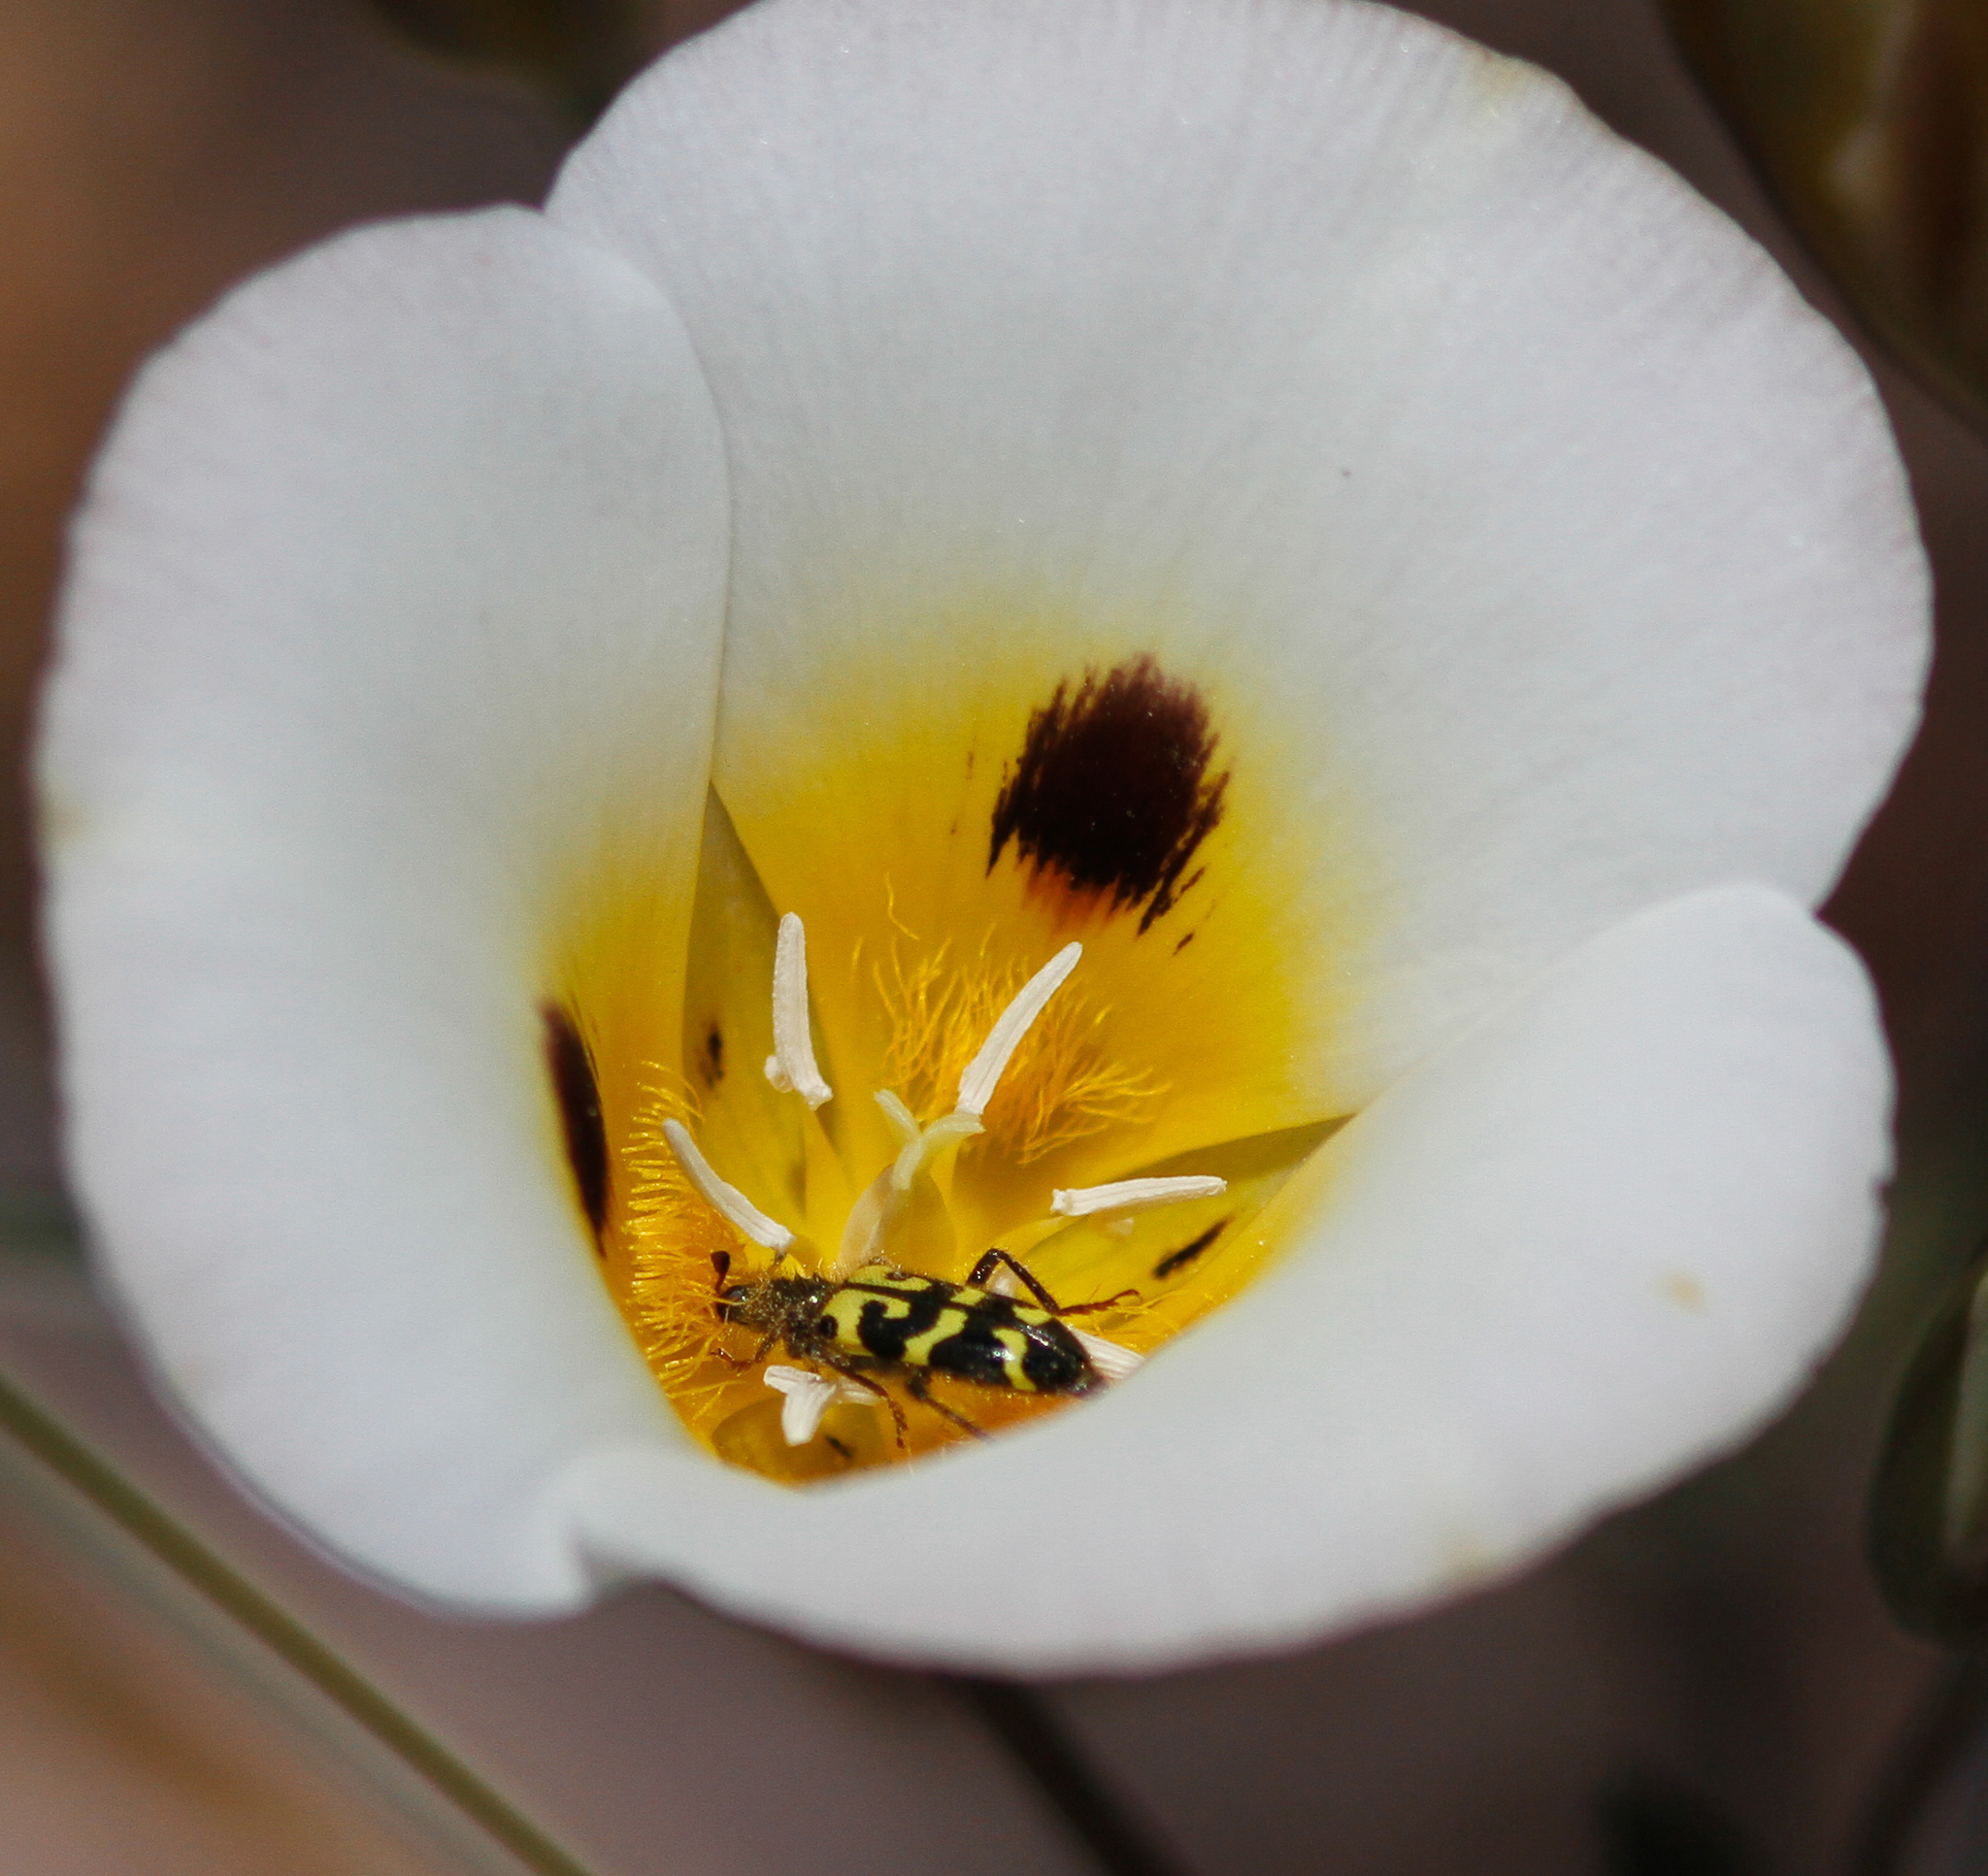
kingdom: Animalia
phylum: Arthropoda
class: Insecta
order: Coleoptera
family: Cleridae
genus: Trichodes
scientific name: Trichodes ornatus
